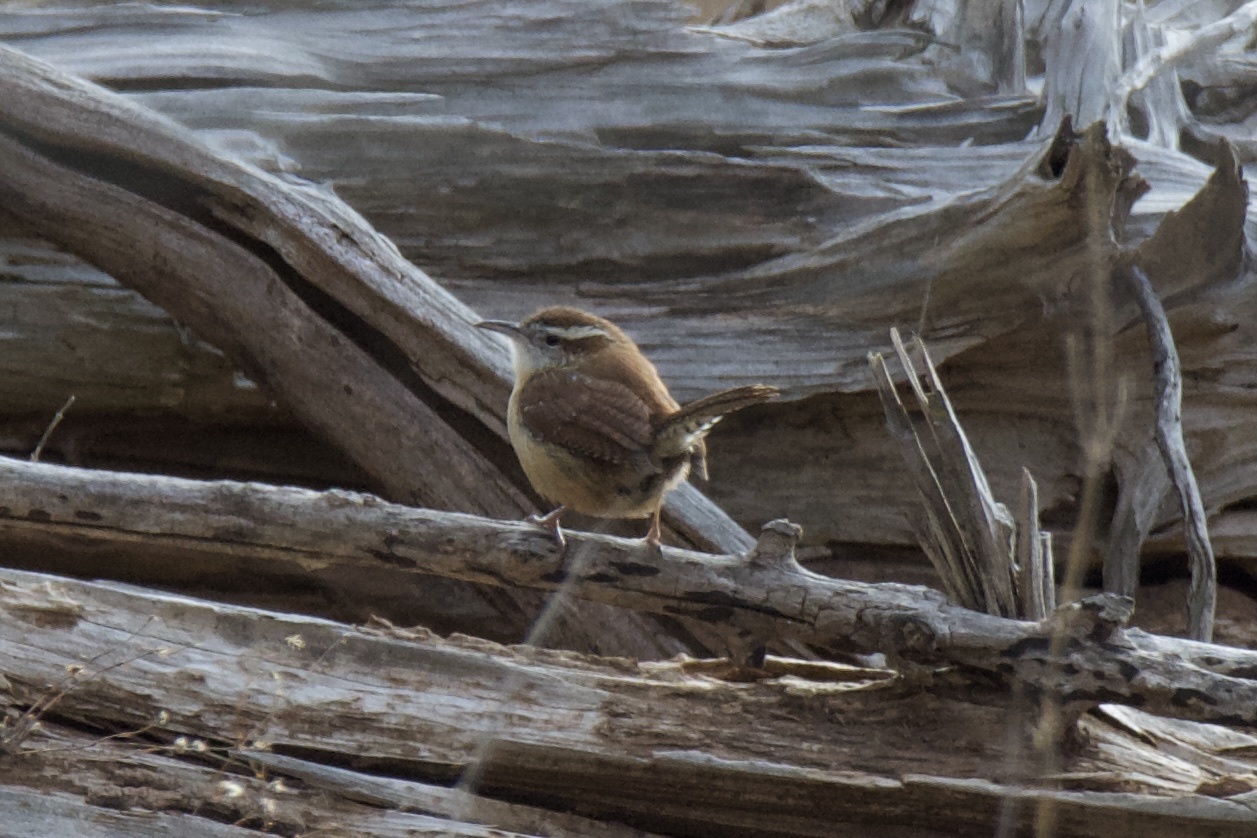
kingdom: Animalia
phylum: Chordata
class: Aves
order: Passeriformes
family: Troglodytidae
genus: Thryothorus
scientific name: Thryothorus ludovicianus
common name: Carolina wren
